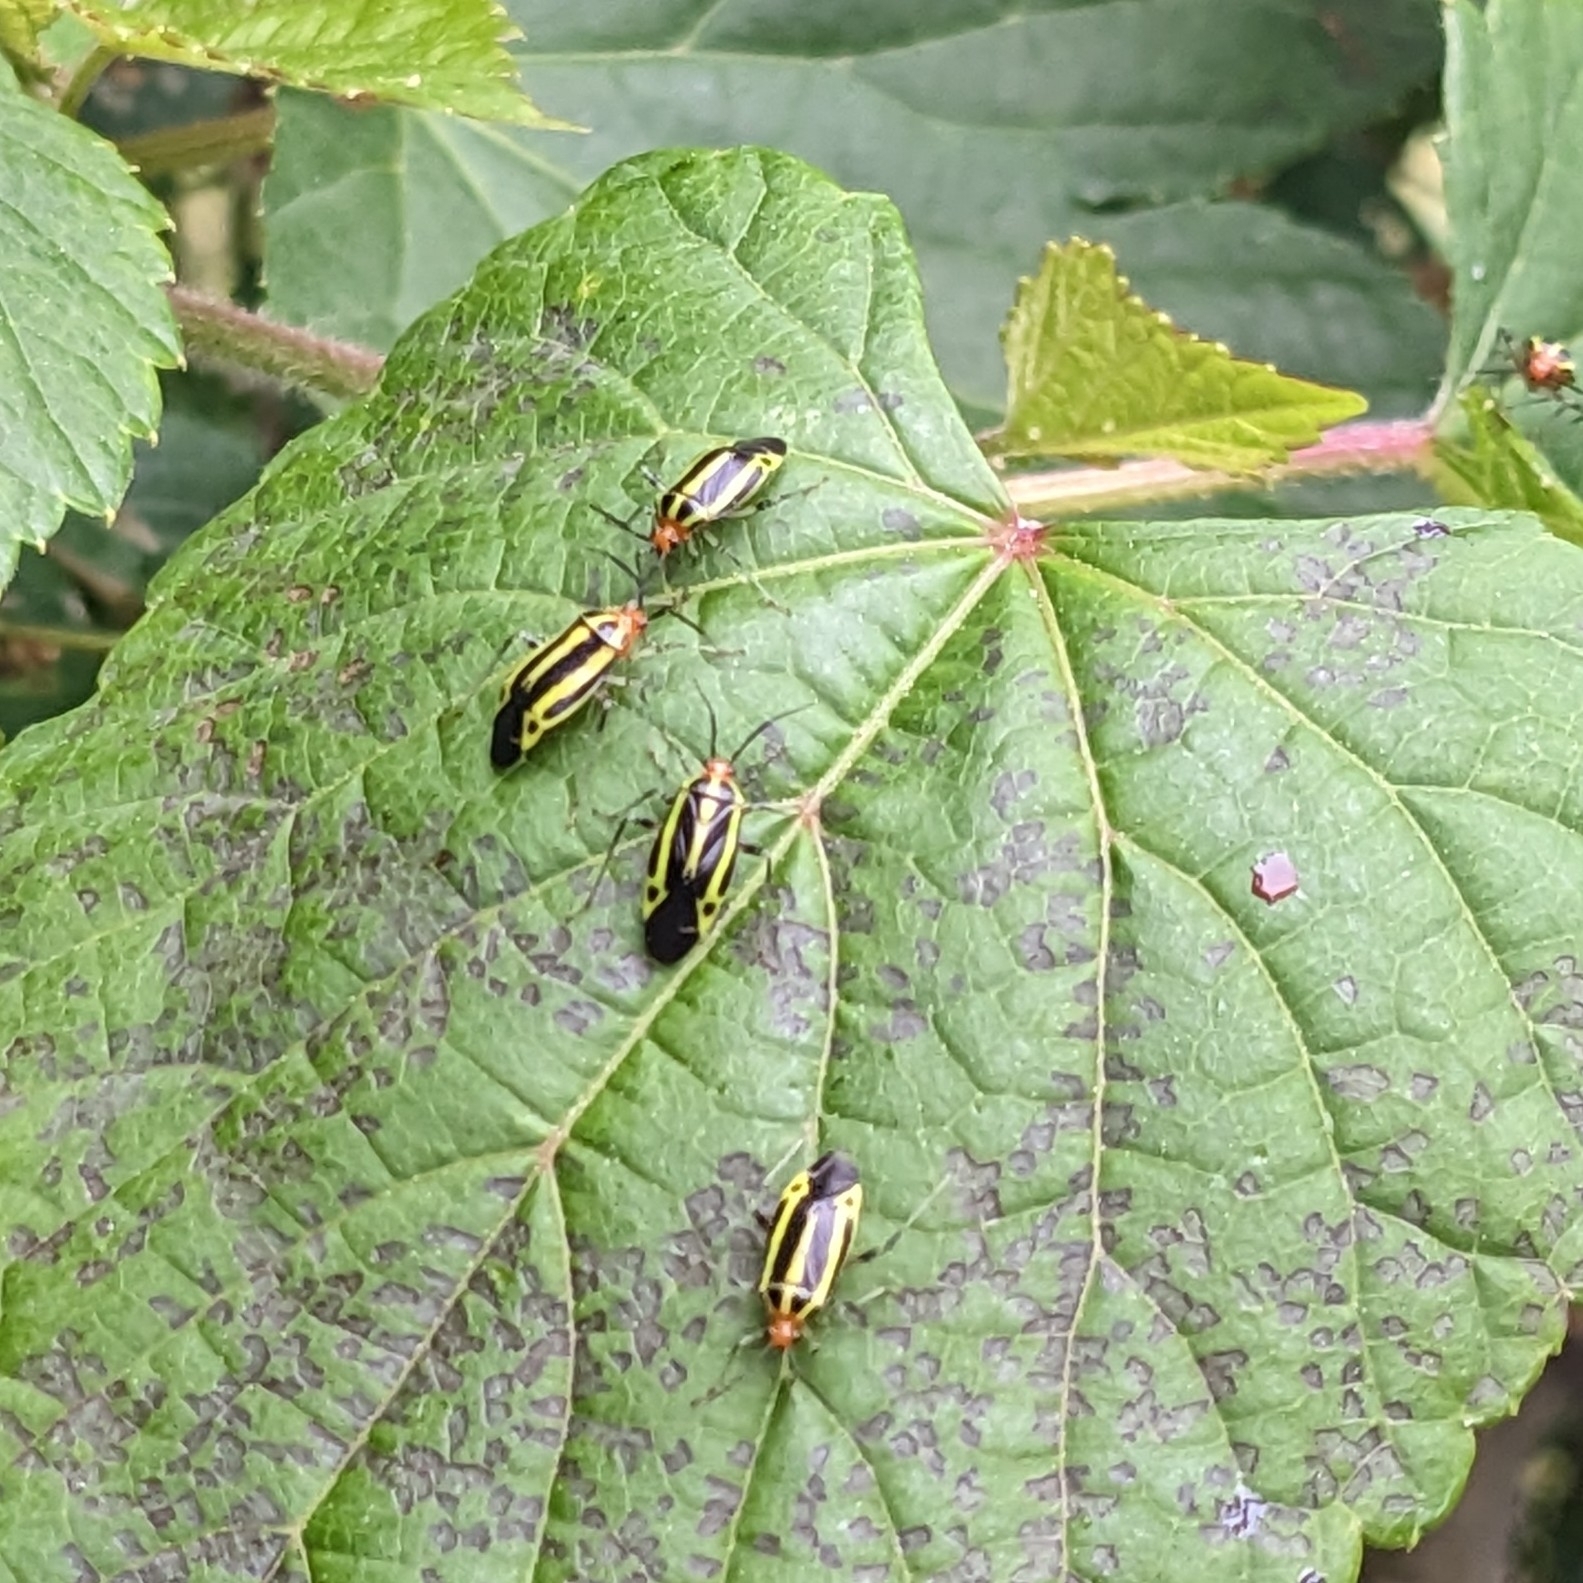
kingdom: Animalia
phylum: Arthropoda
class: Insecta
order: Hemiptera
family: Miridae
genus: Poecilocapsus
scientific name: Poecilocapsus lineatus
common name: Four-lined plant bug
